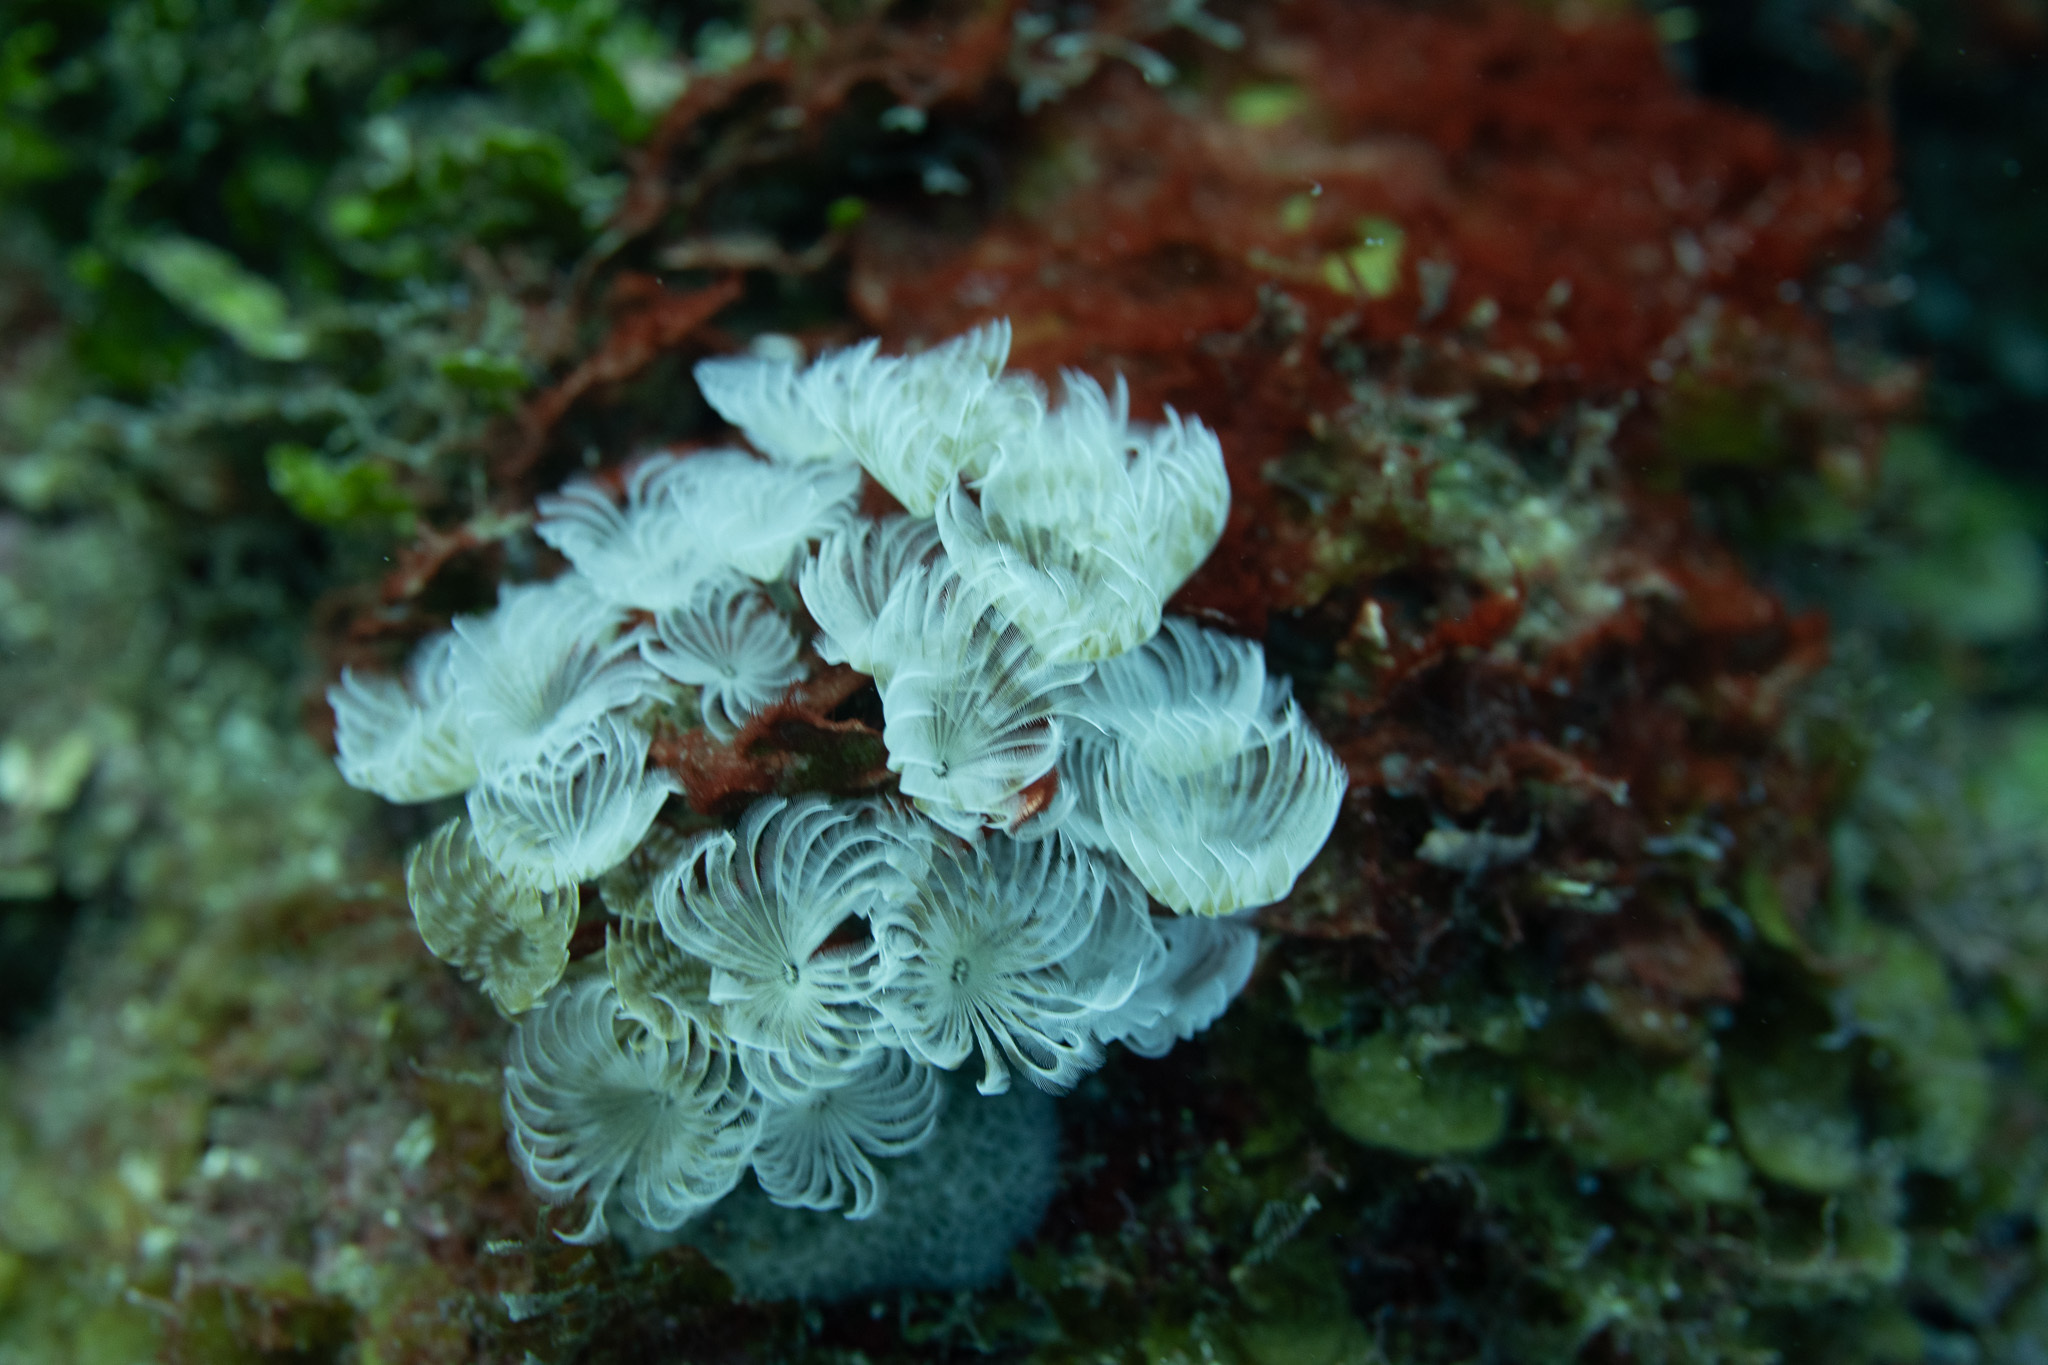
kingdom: Animalia
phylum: Annelida
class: Polychaeta
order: Sabellida
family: Sabellidae
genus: Bispira
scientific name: Bispira brunnea
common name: Social feather duster
